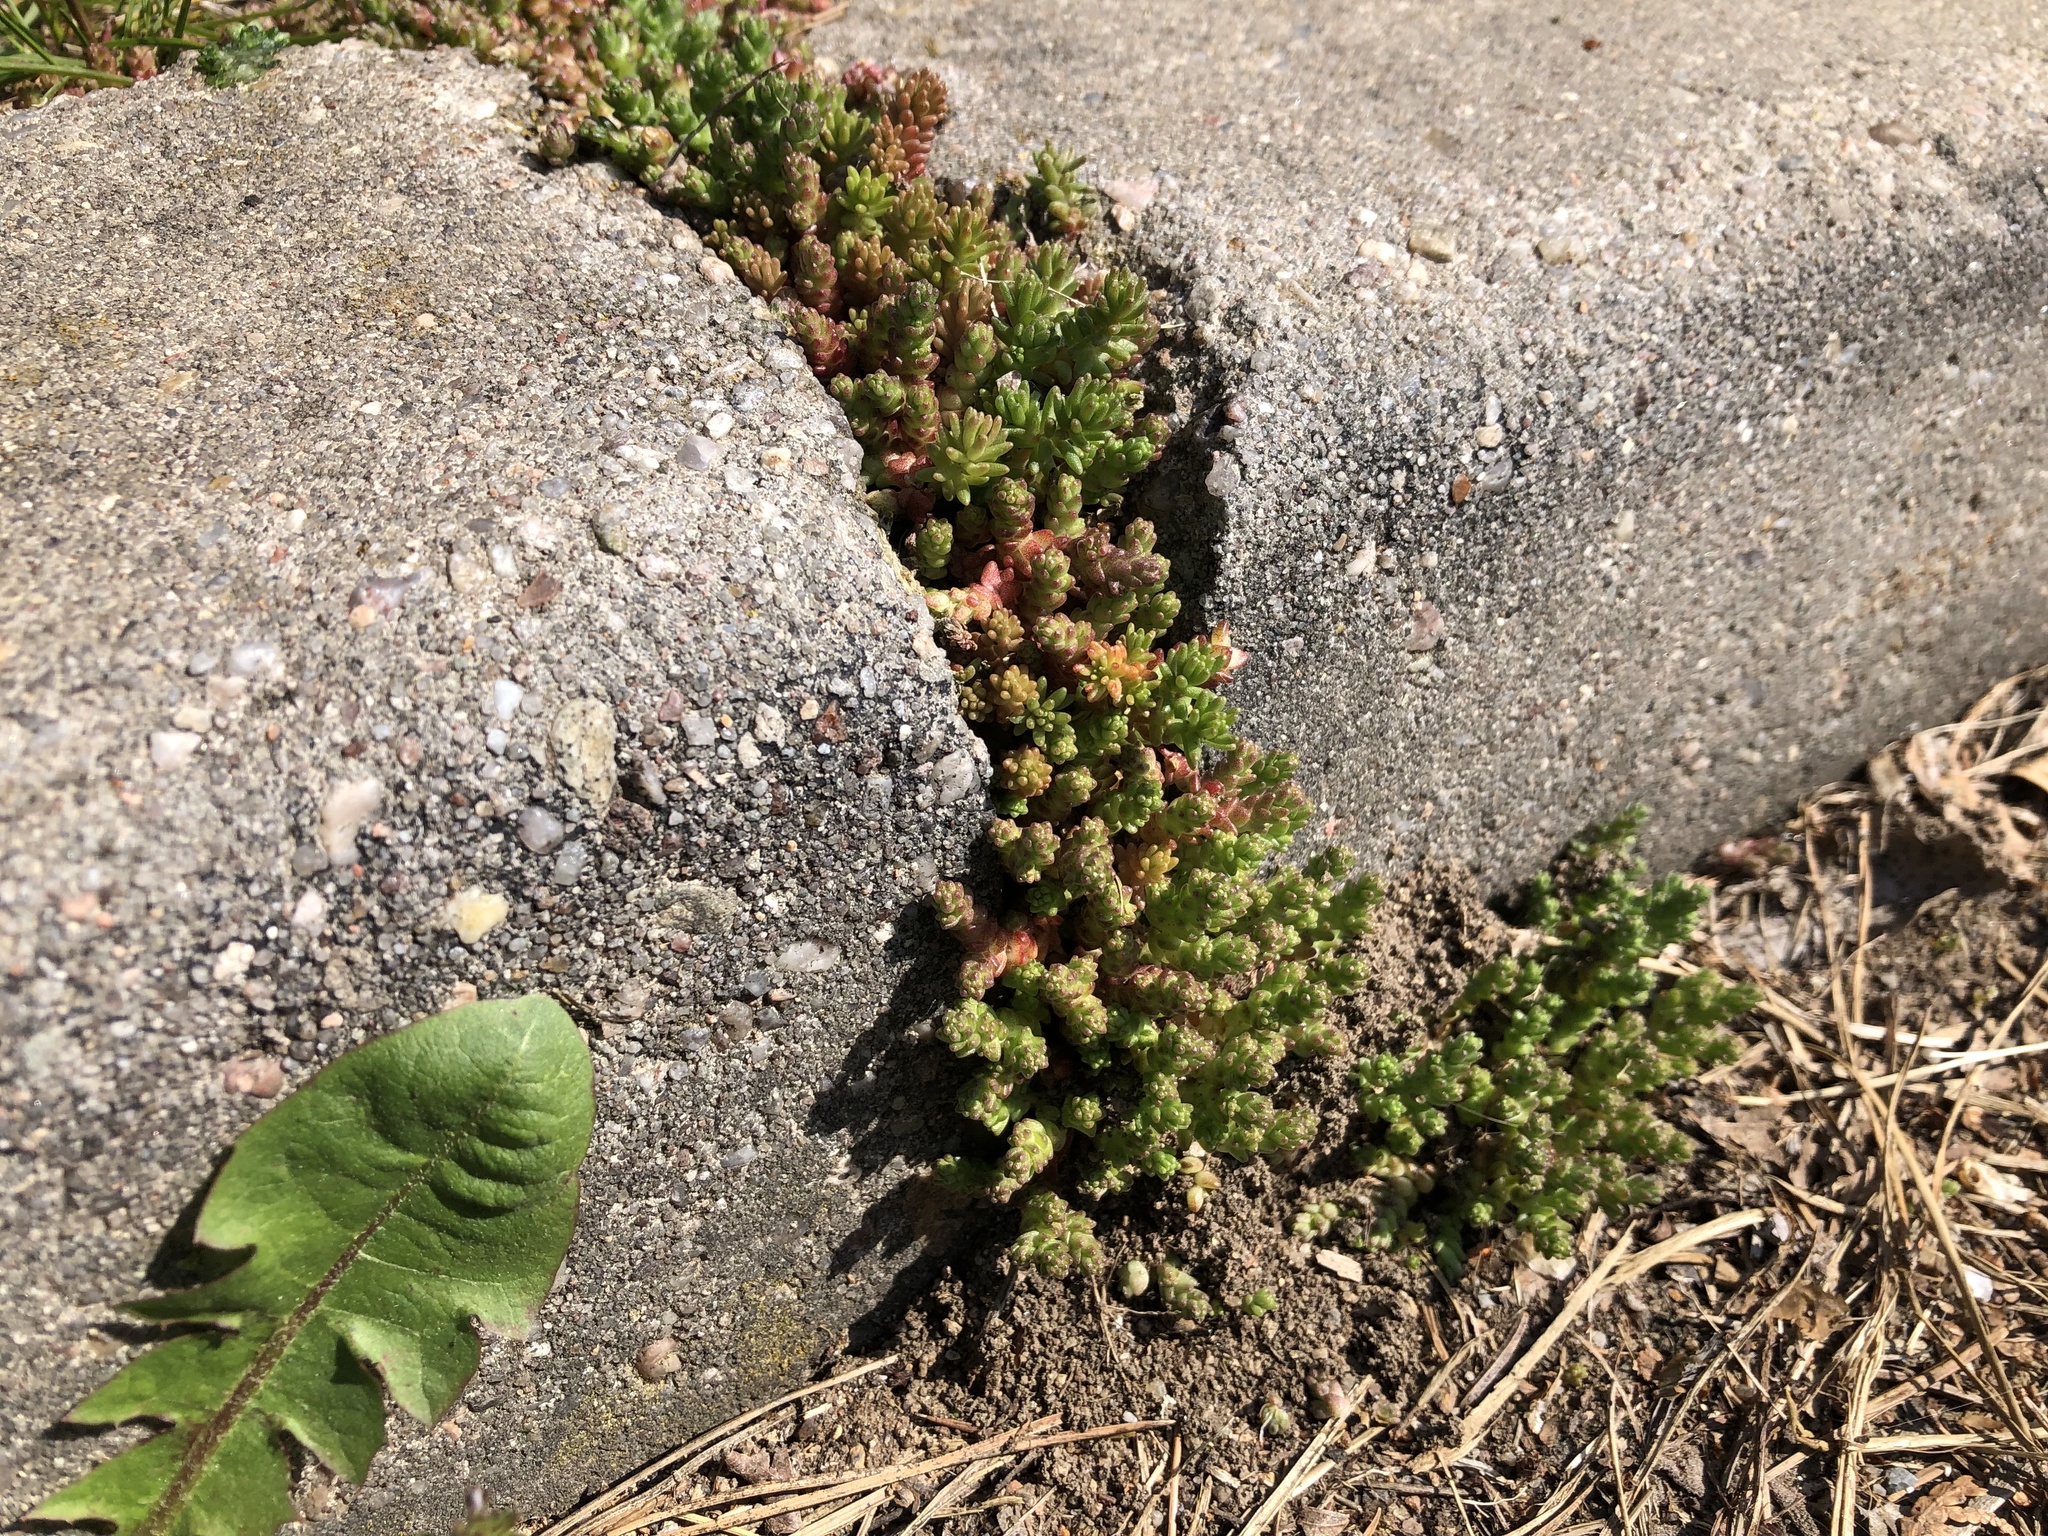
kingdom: Plantae
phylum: Tracheophyta
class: Magnoliopsida
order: Saxifragales
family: Crassulaceae
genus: Sedum
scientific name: Sedum acre
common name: Biting stonecrop
